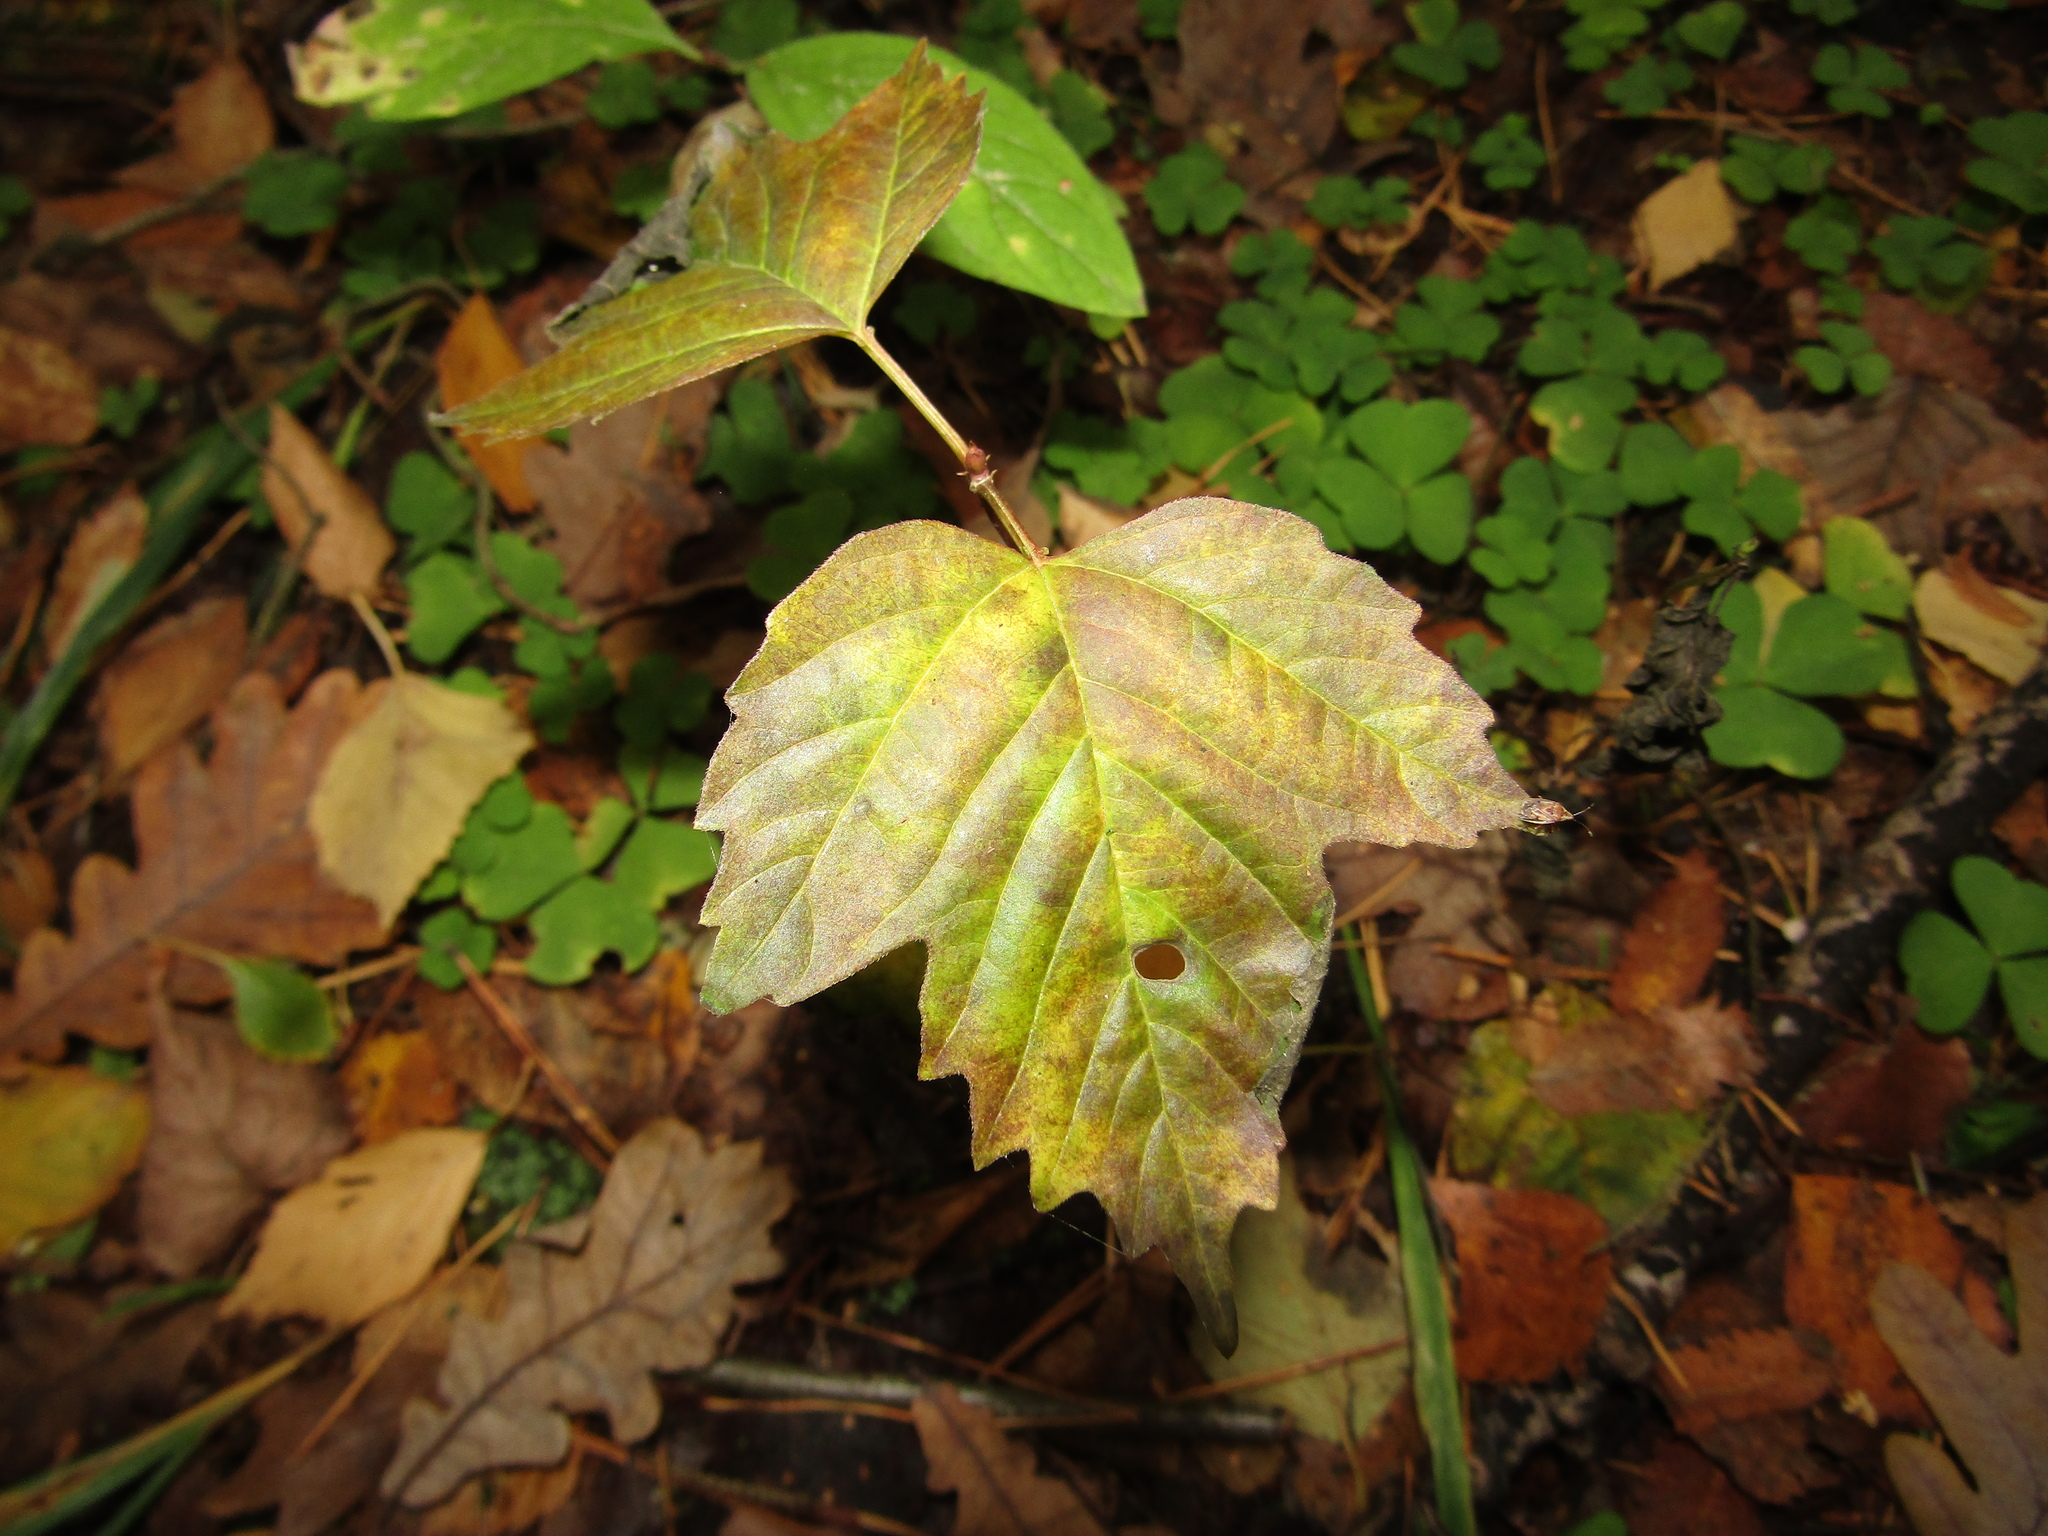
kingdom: Plantae
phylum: Tracheophyta
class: Magnoliopsida
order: Dipsacales
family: Viburnaceae
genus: Viburnum
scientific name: Viburnum opulus
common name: Guelder-rose
